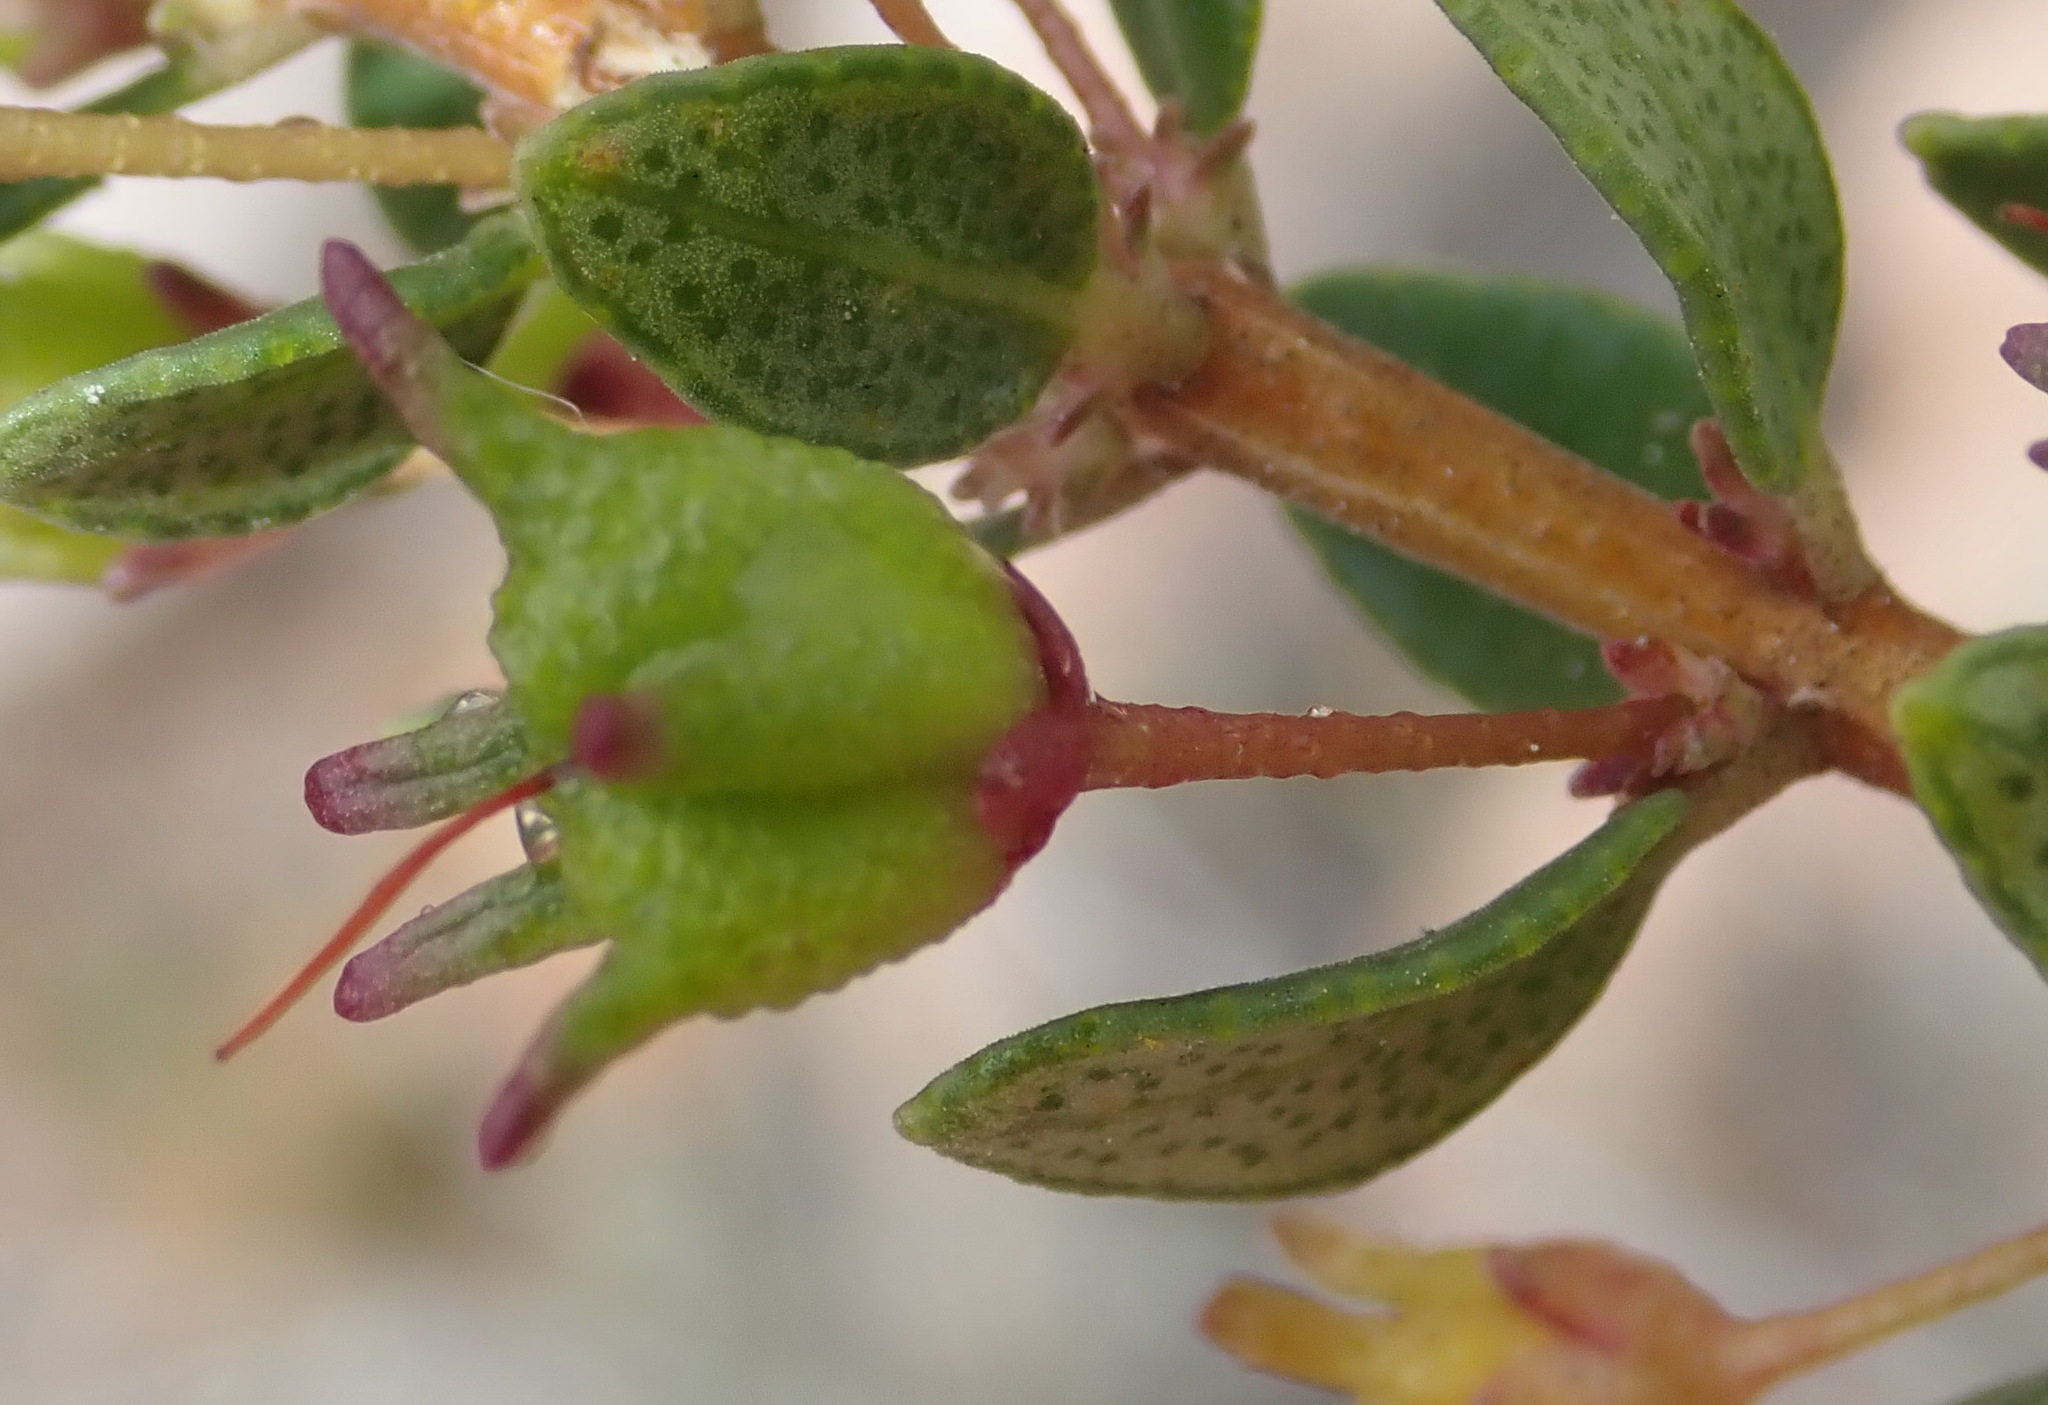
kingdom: Plantae
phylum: Tracheophyta
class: Magnoliopsida
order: Sapindales
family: Rutaceae
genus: Agathosma
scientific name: Agathosma ovata
